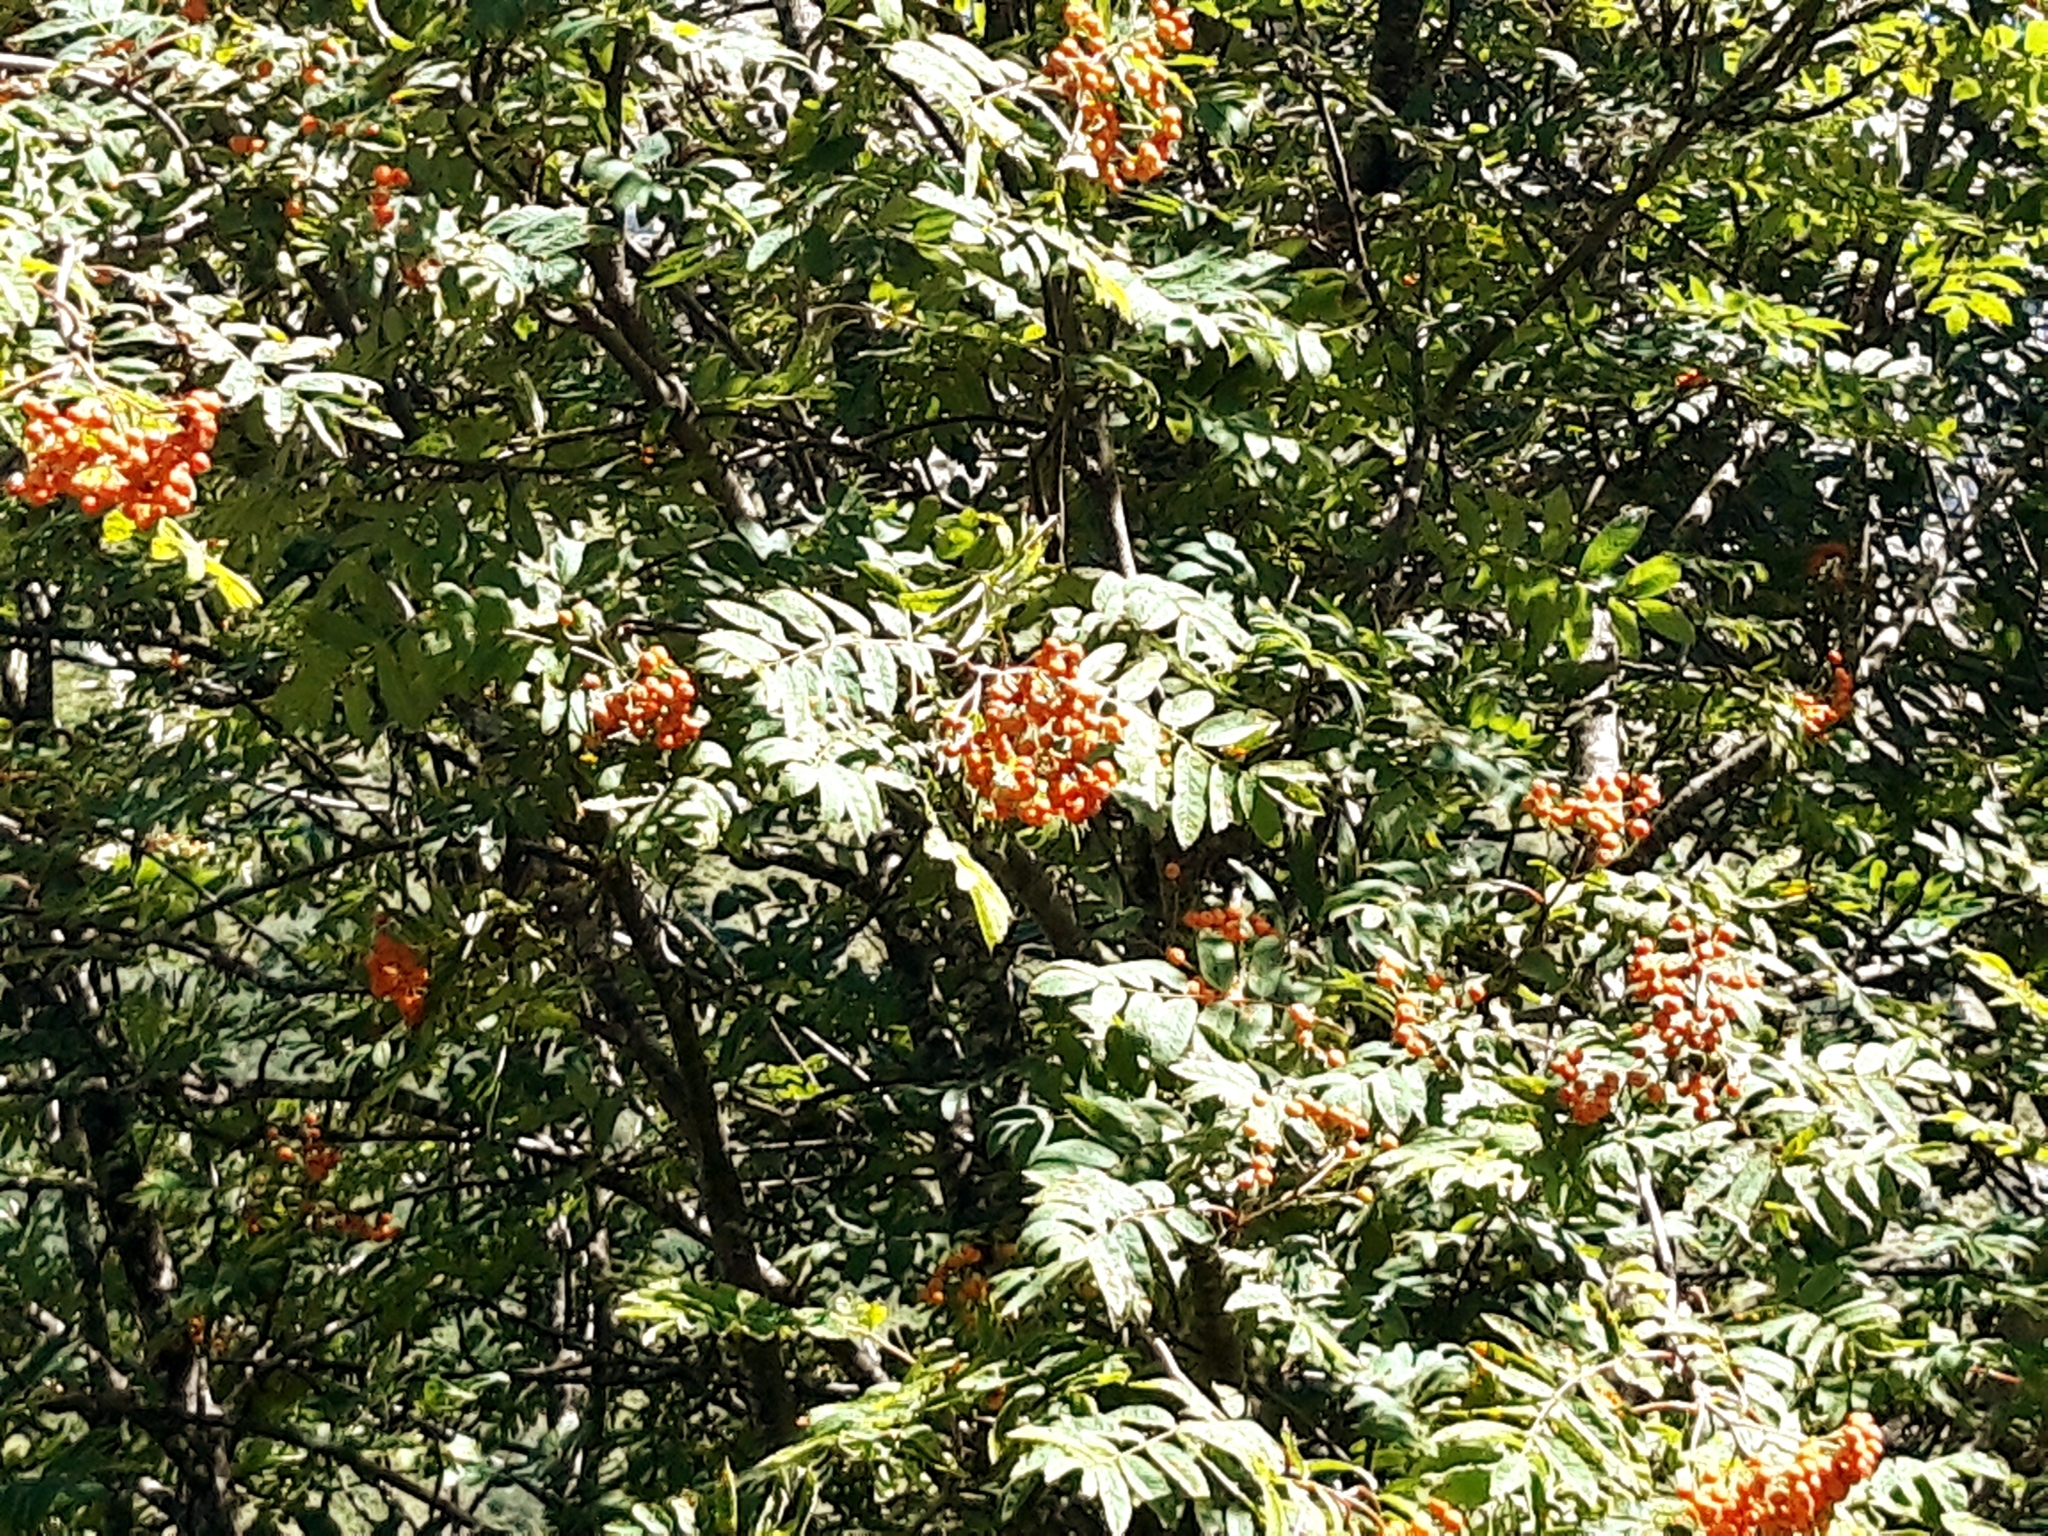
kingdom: Plantae
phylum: Tracheophyta
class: Magnoliopsida
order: Rosales
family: Rosaceae
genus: Sorbus
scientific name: Sorbus aucuparia
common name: Rowan
